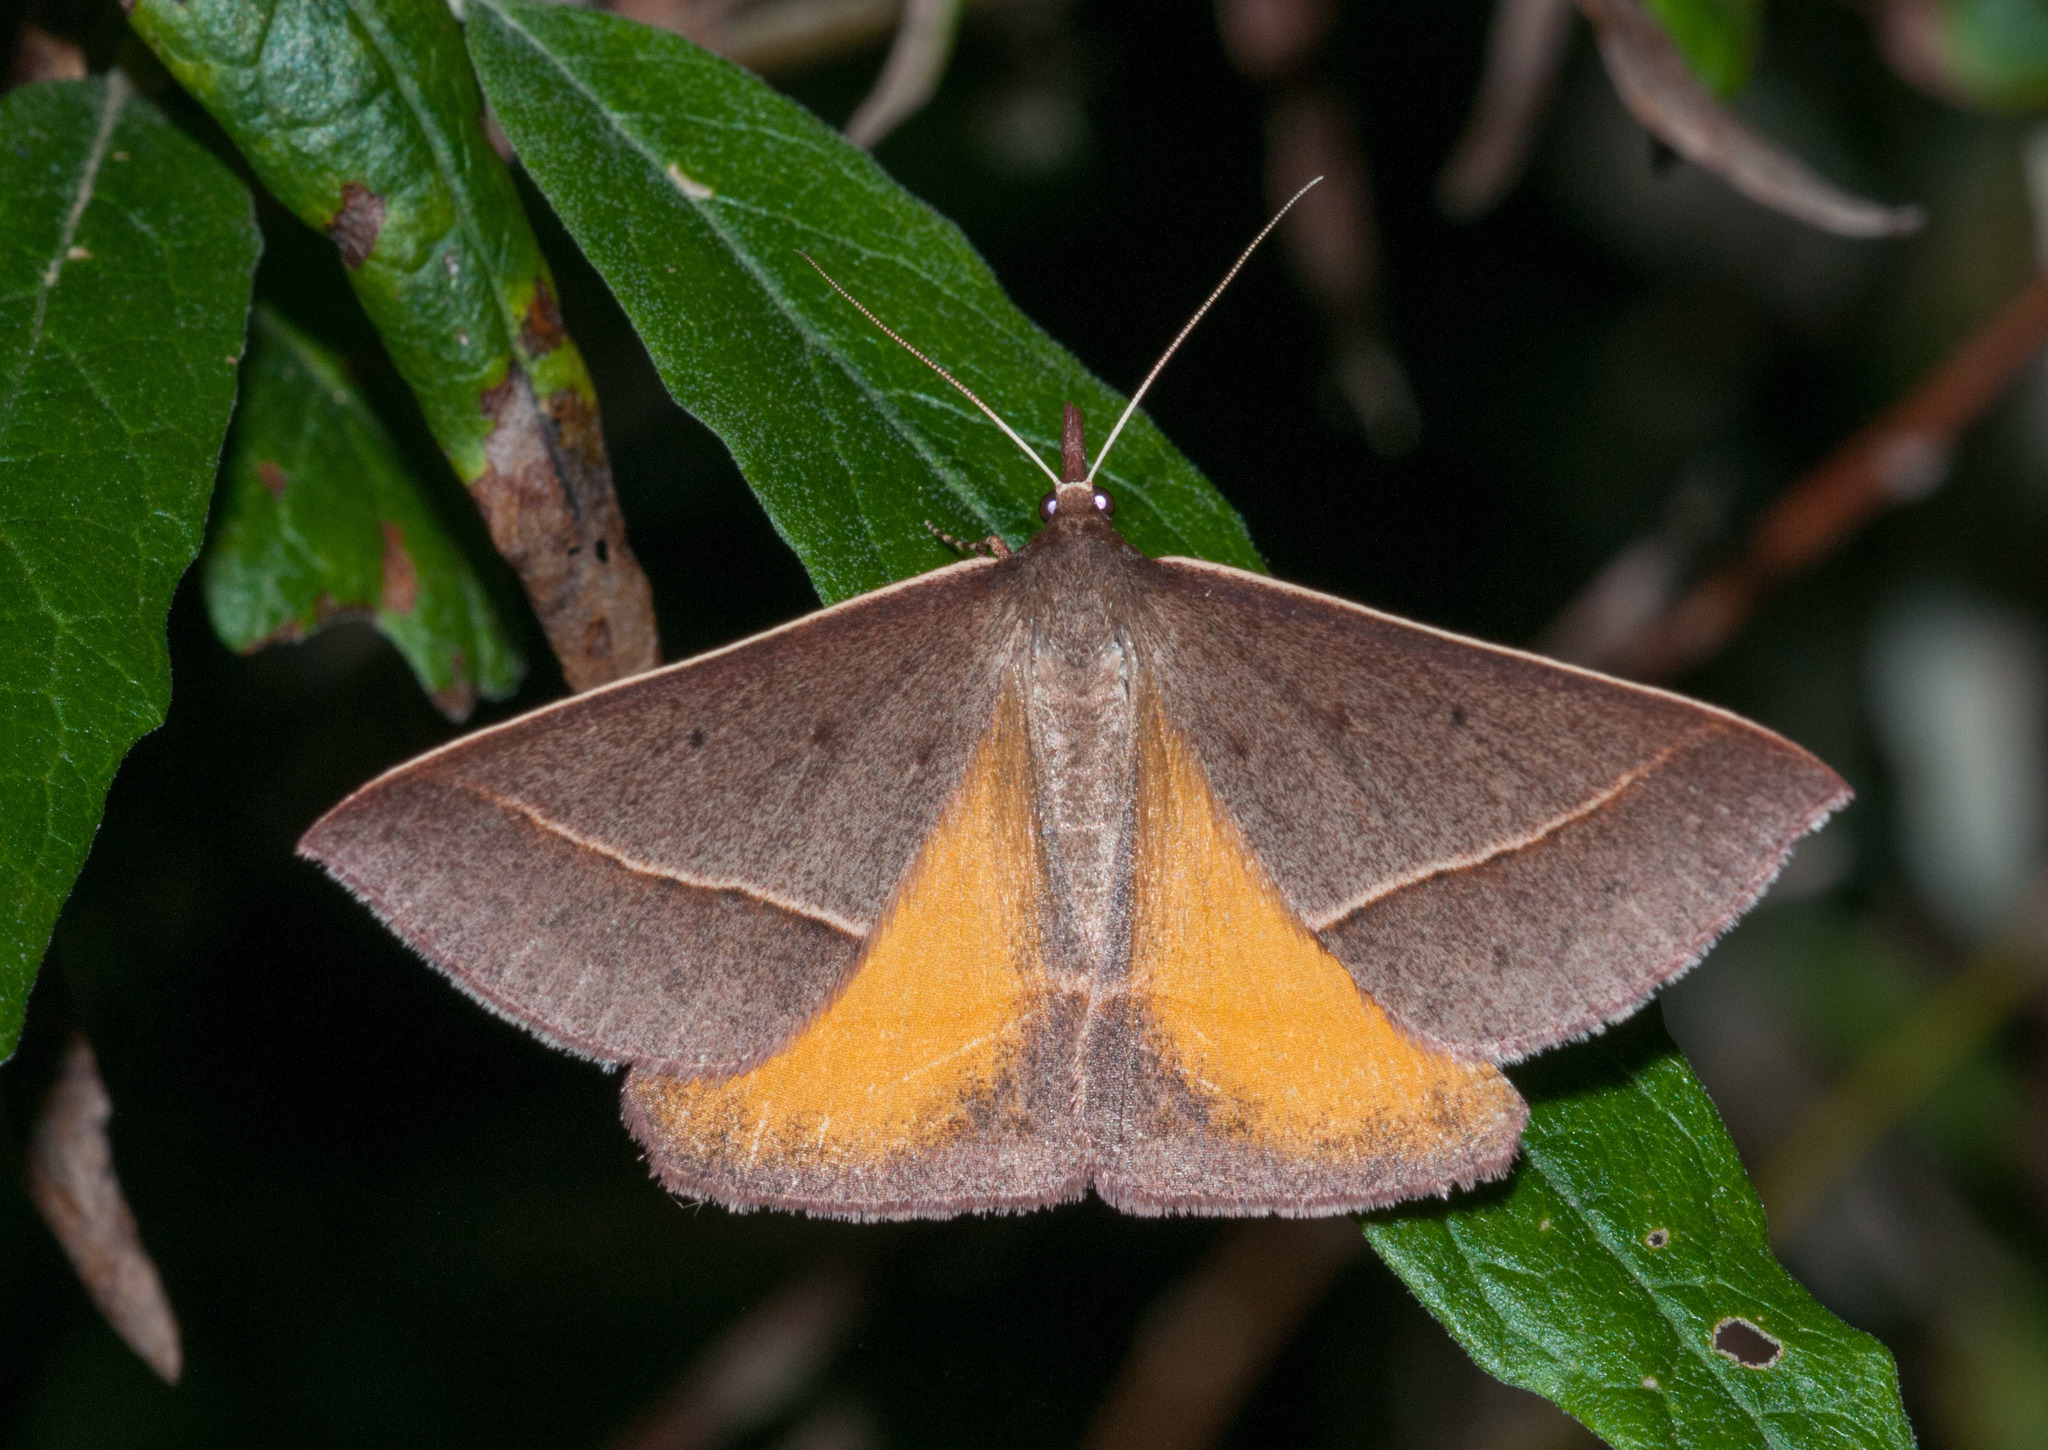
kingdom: Animalia
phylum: Arthropoda
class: Insecta
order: Lepidoptera
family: Geometridae
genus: Epidesmia
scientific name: Epidesmia chilonaria
